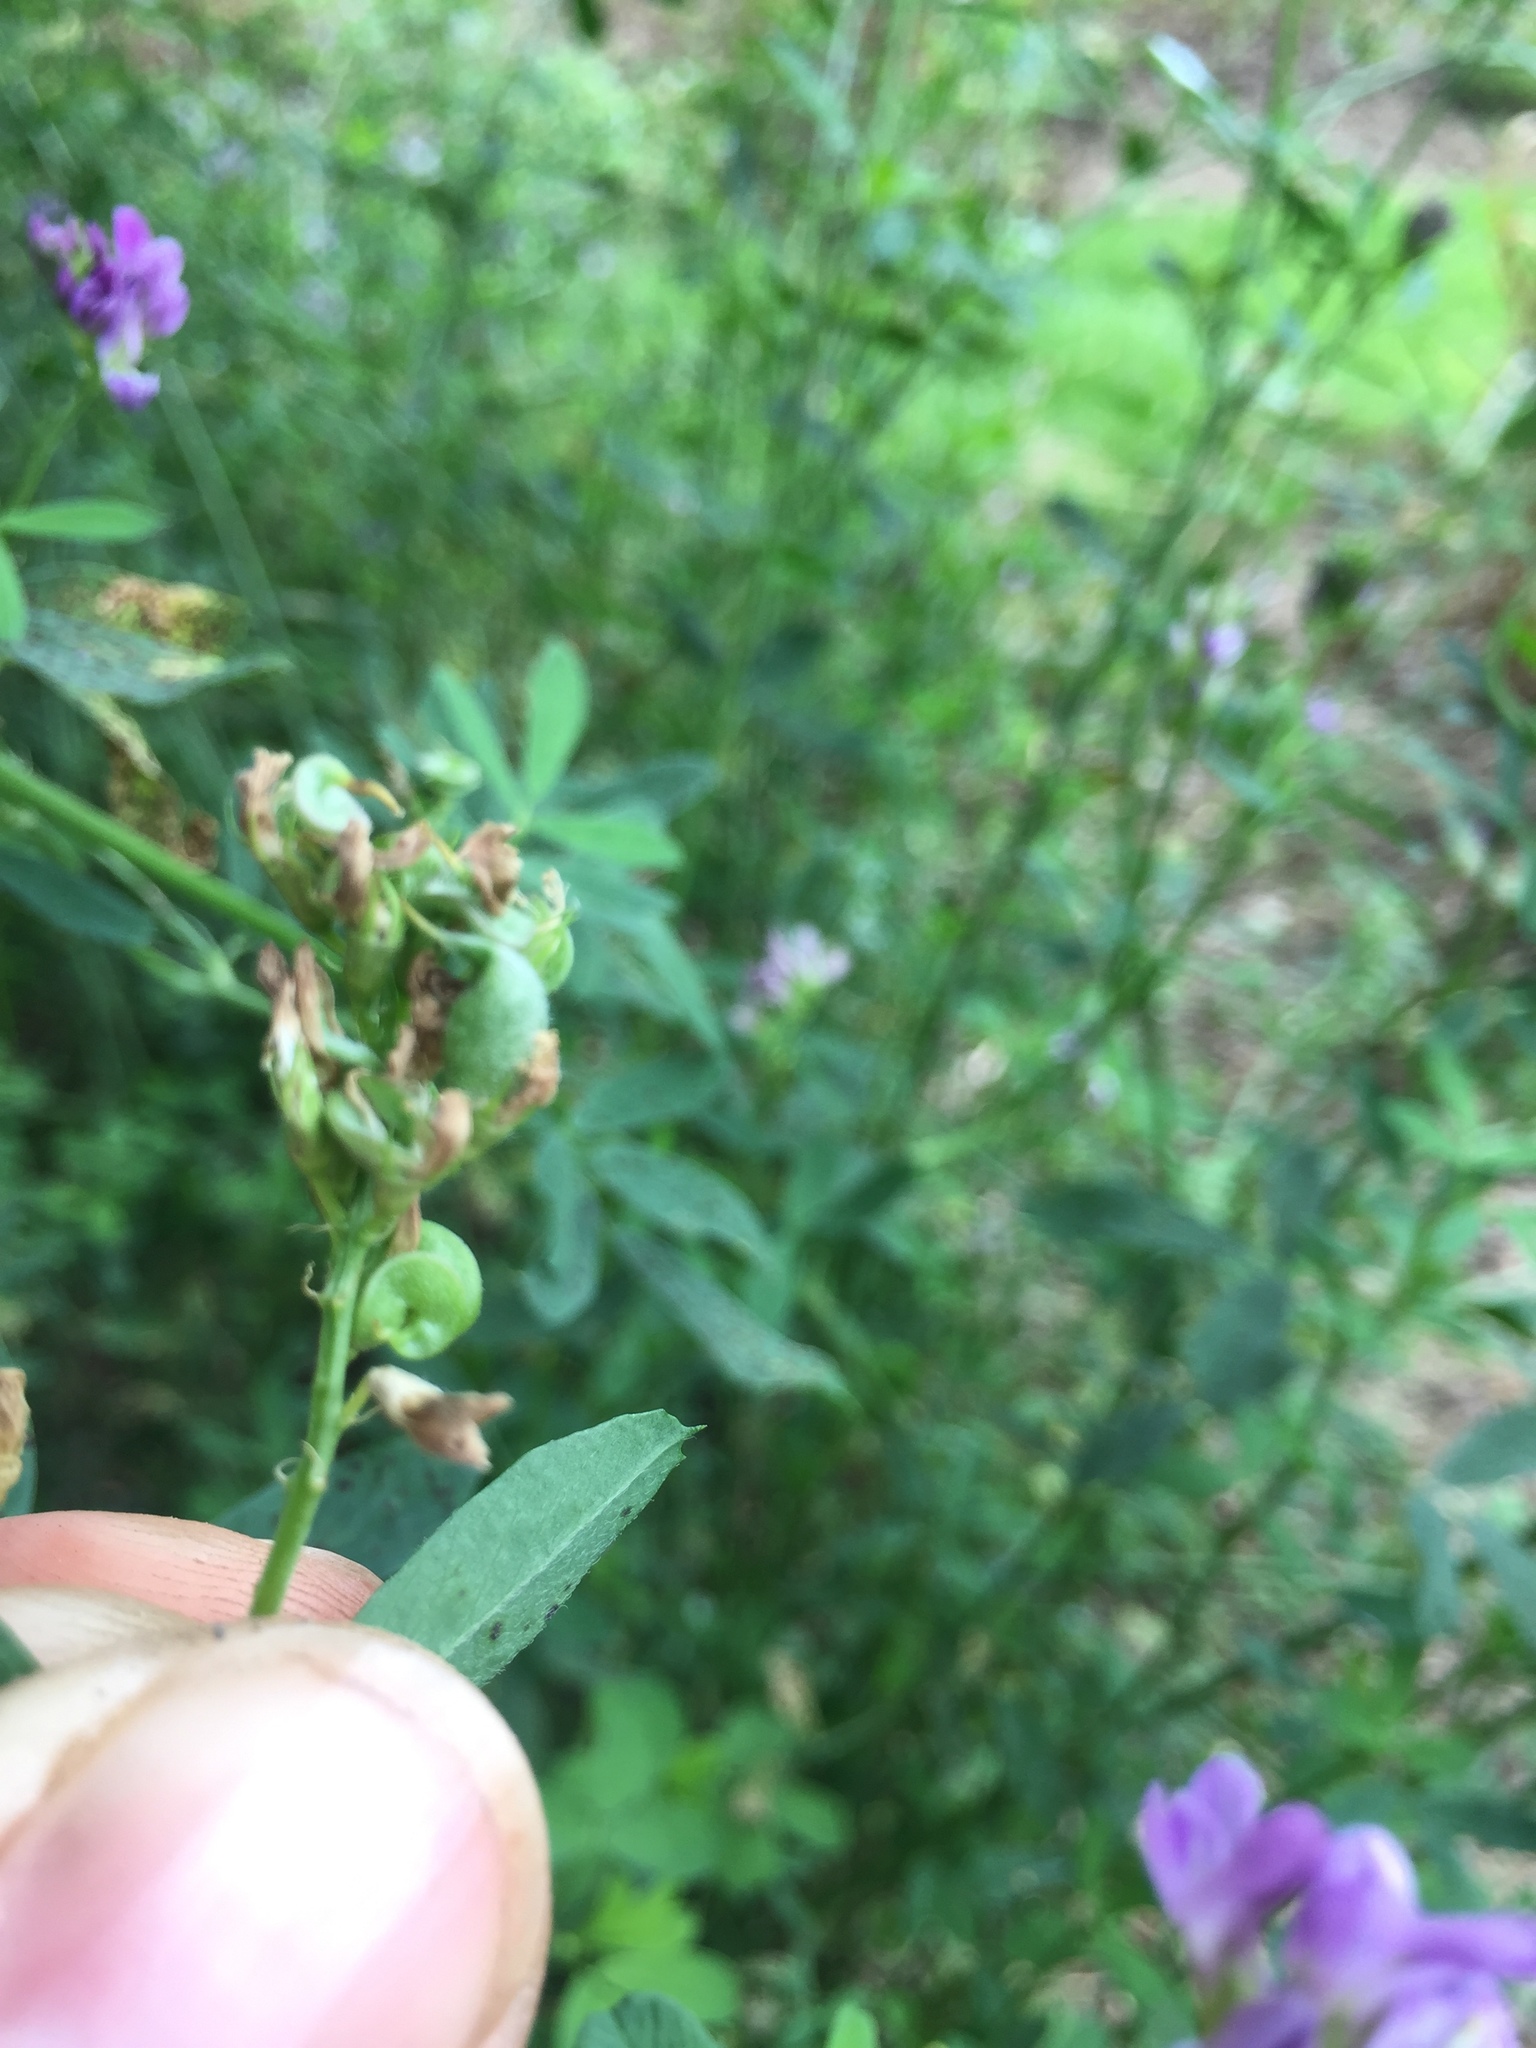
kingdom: Animalia
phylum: Arthropoda
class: Insecta
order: Diptera
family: Cecidomyiidae
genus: Asphondylia
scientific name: Asphondylia miki
